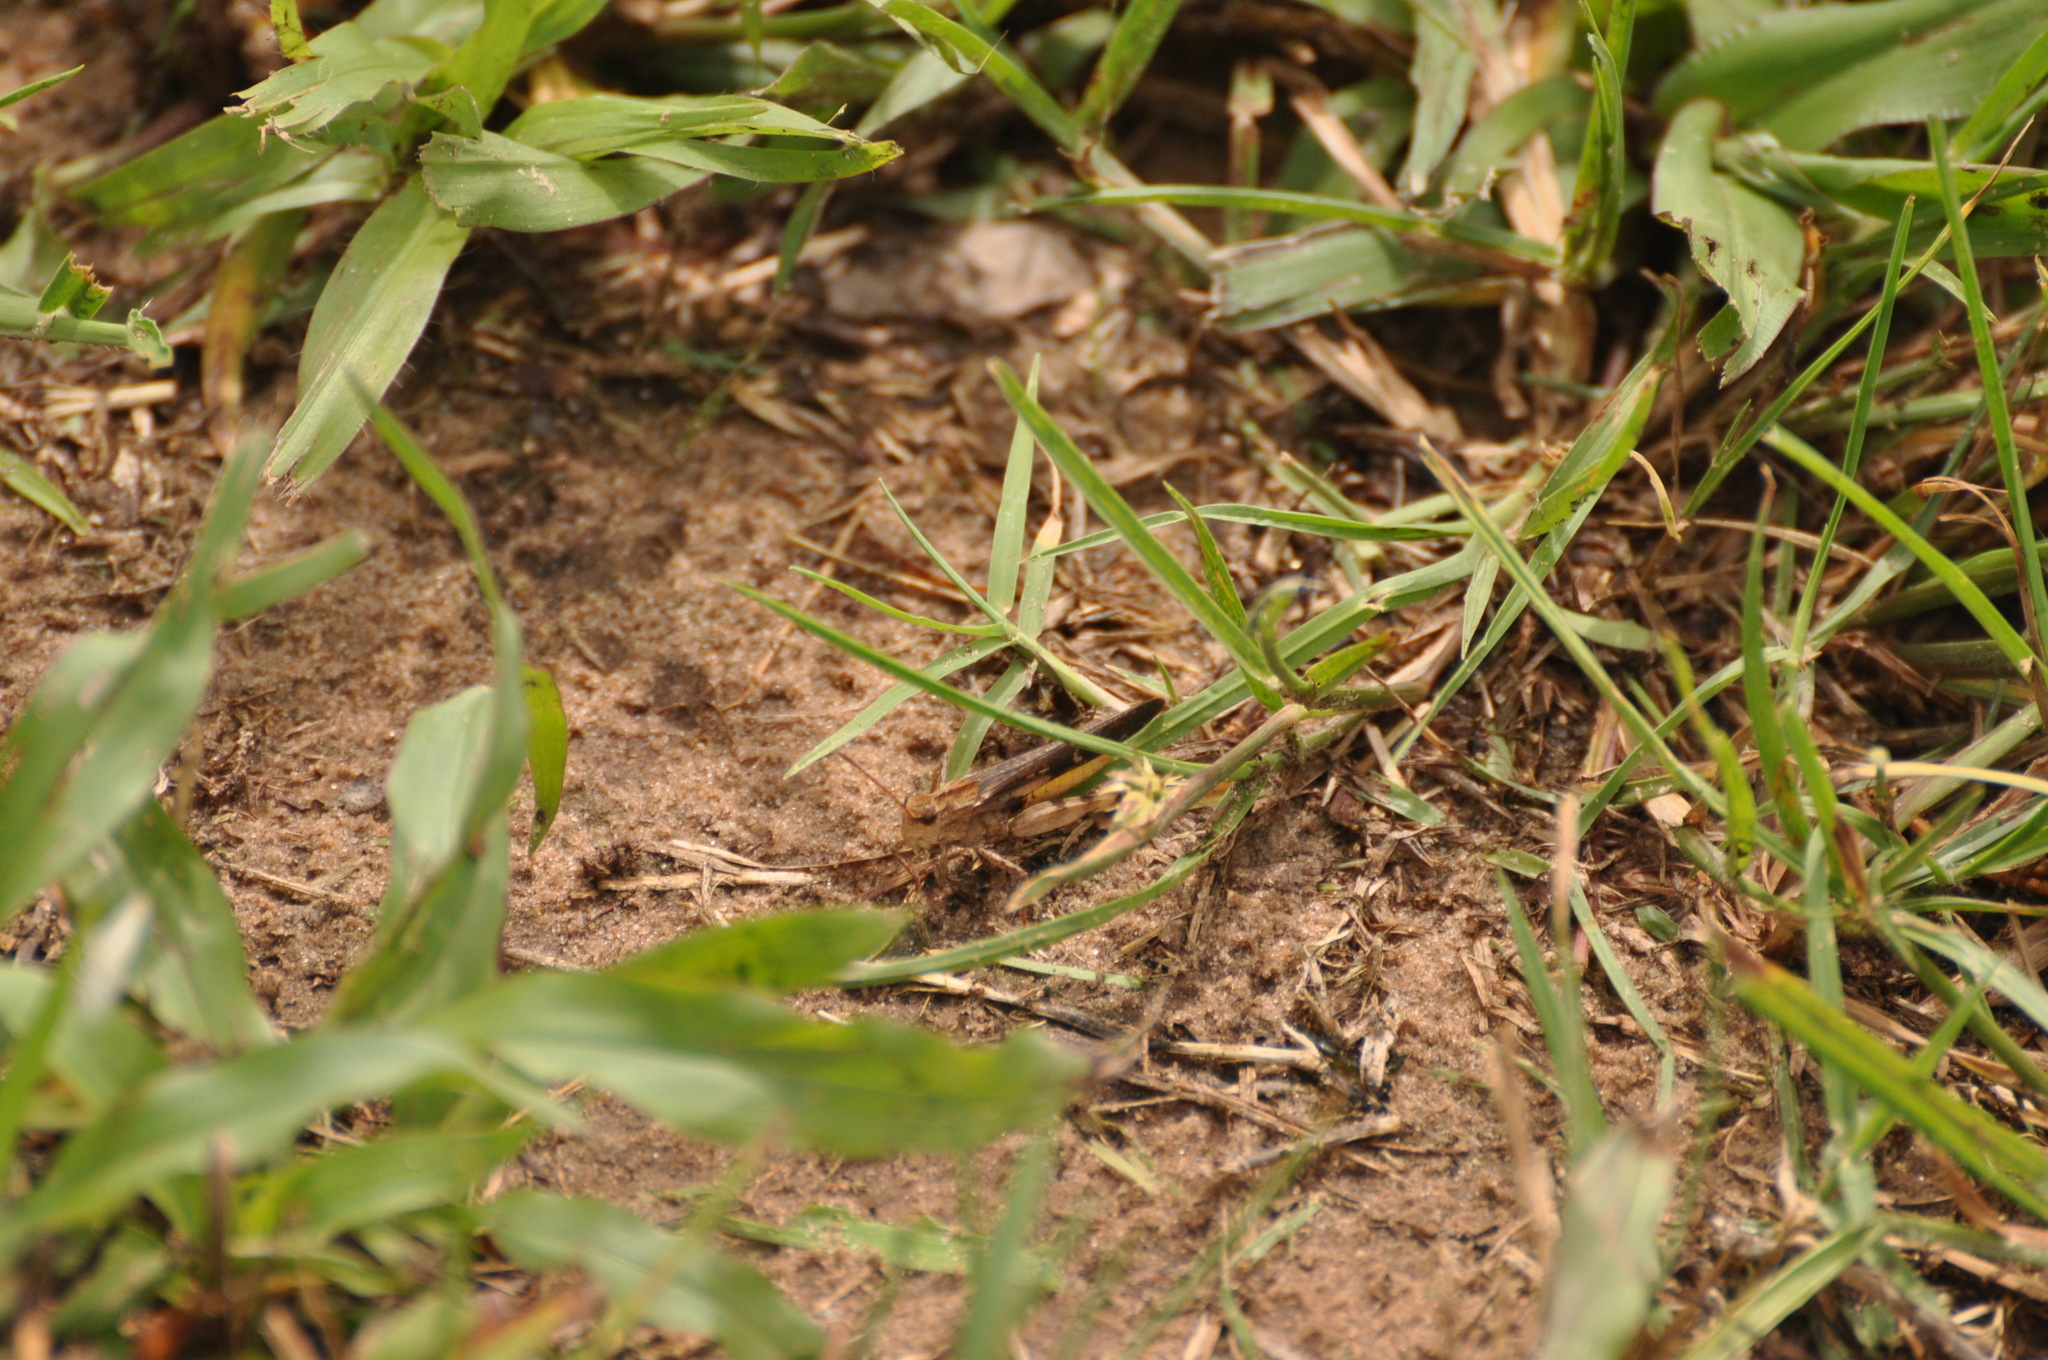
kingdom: Animalia
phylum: Arthropoda
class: Insecta
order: Orthoptera
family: Acrididae
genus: Chortophaga
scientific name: Chortophaga viridifasciata
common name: Green-striped grasshopper
